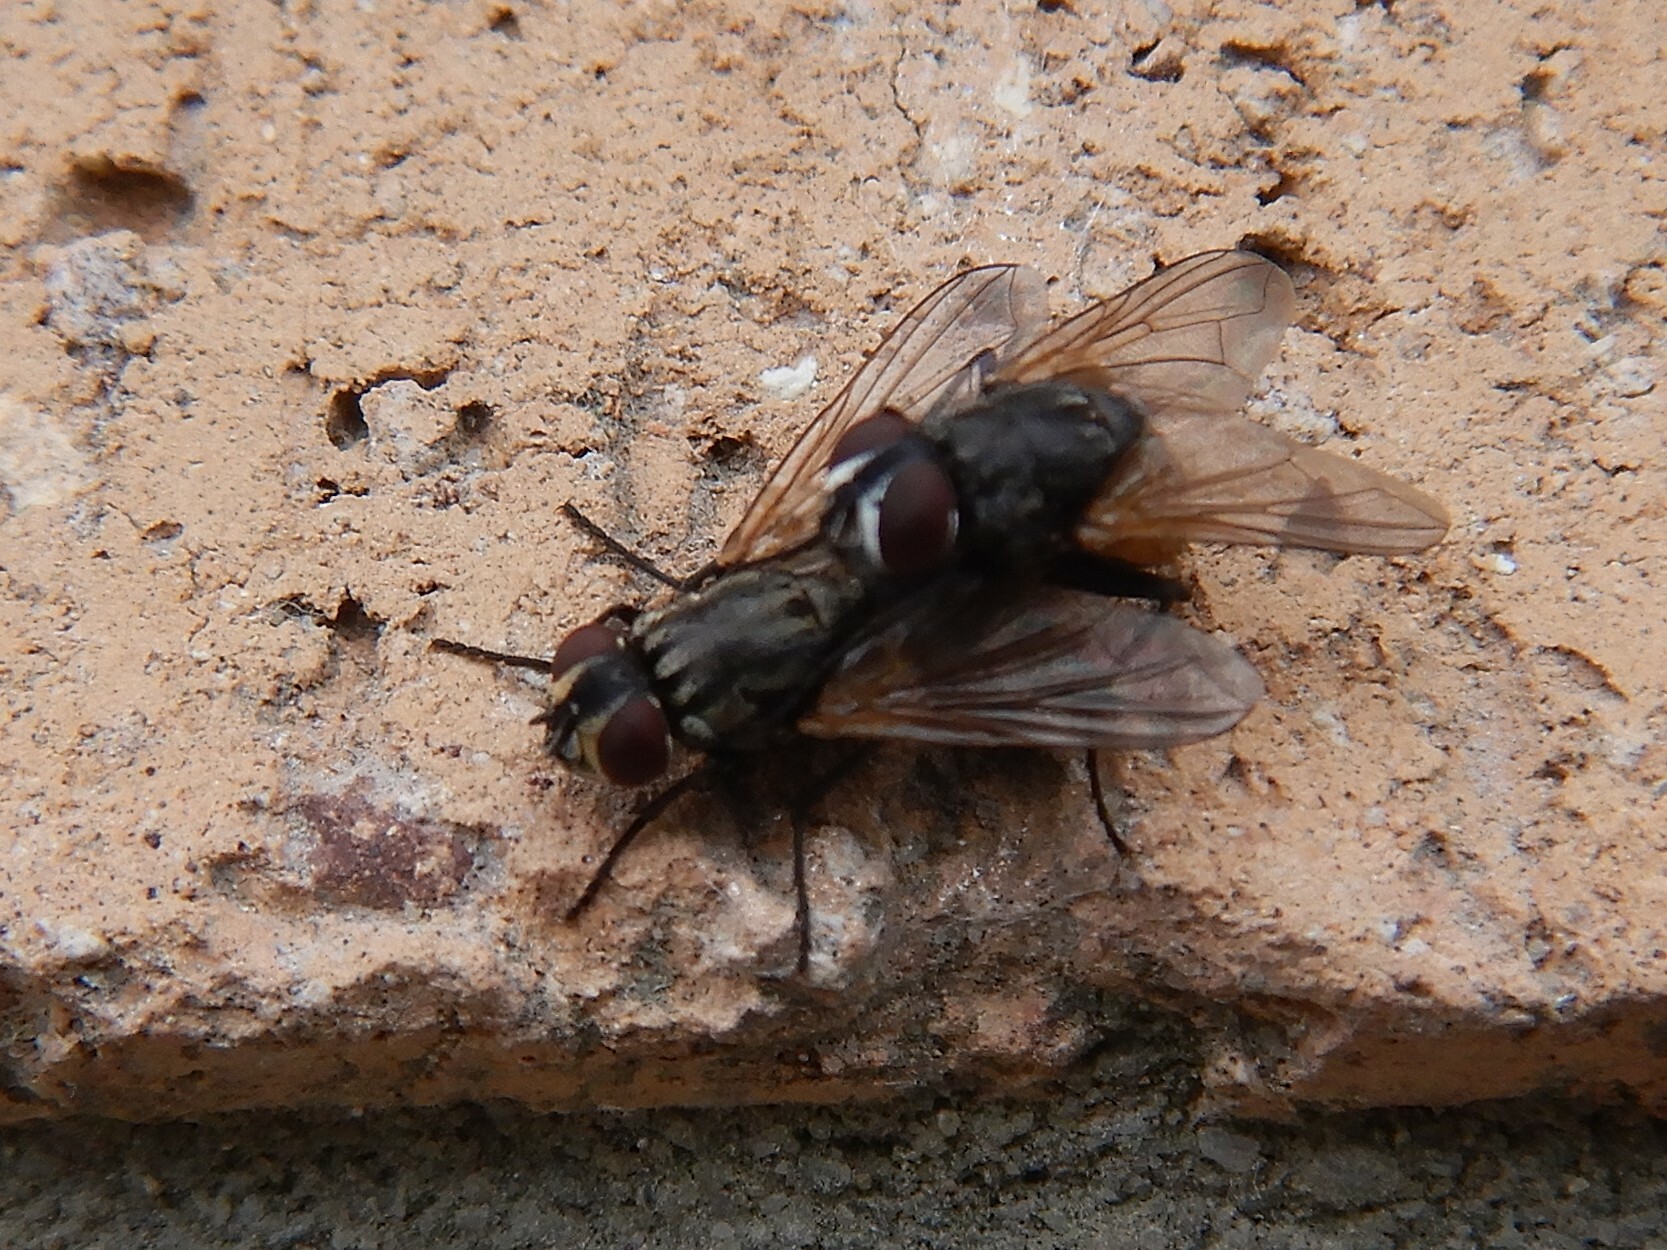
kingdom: Animalia
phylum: Arthropoda
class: Insecta
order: Diptera
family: Muscidae
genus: Musca
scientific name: Musca domestica
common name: House fly
